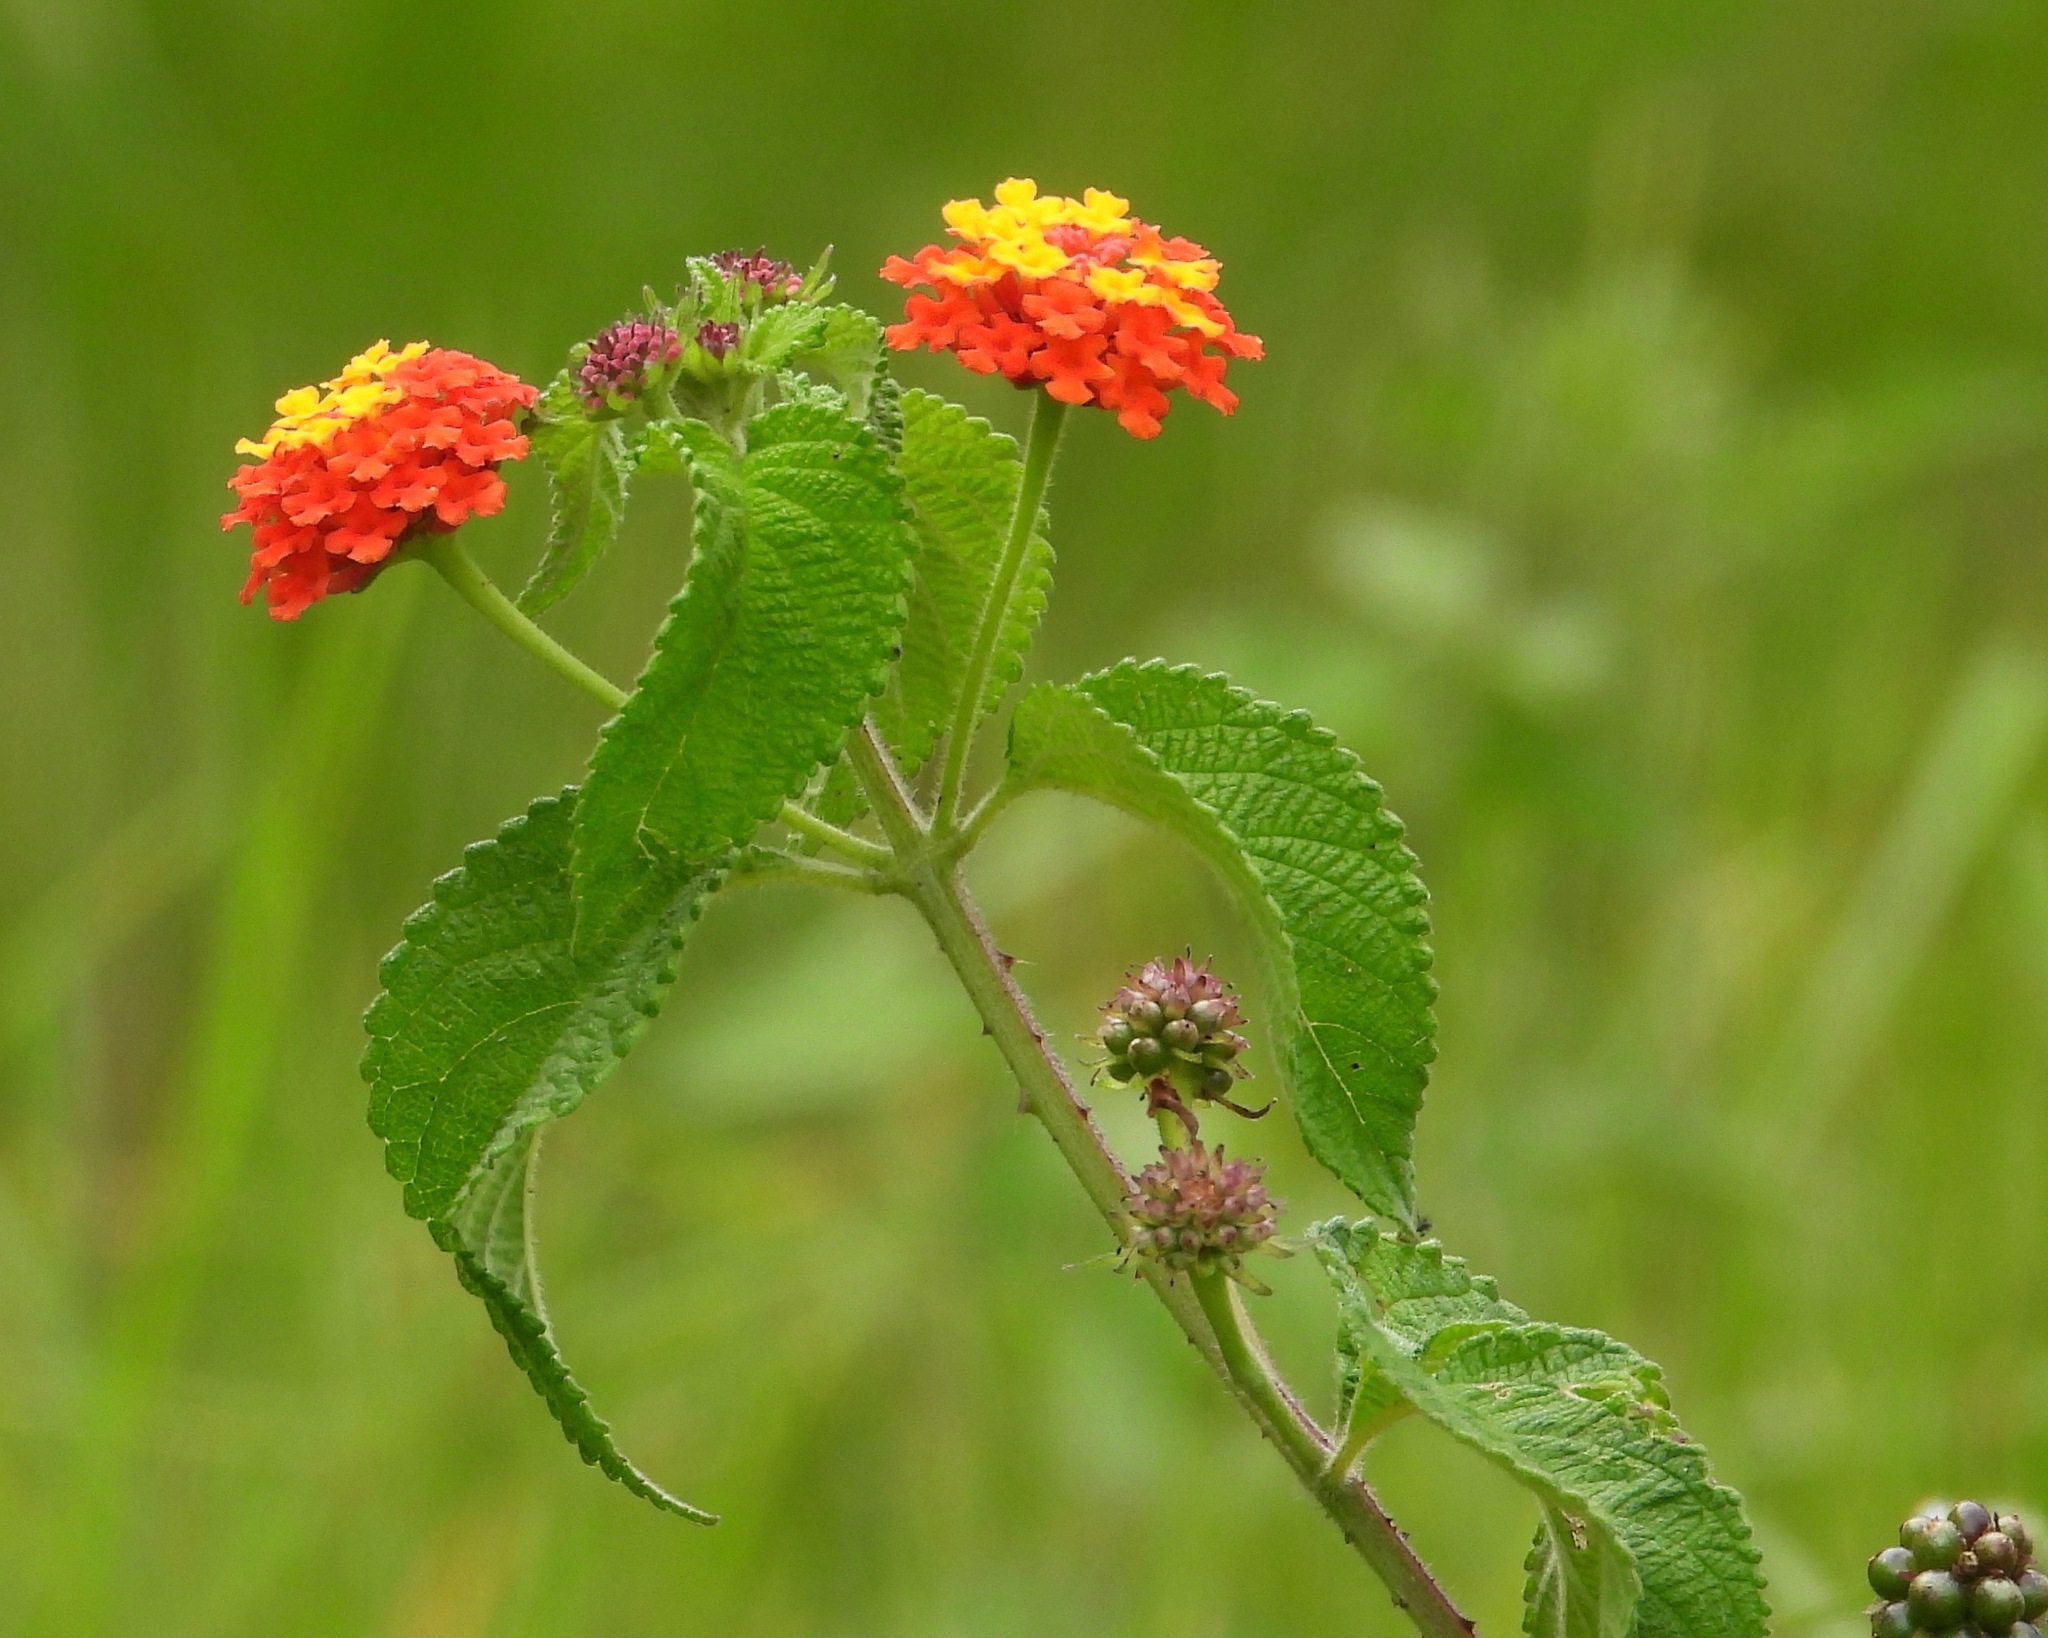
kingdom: Plantae
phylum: Tracheophyta
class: Magnoliopsida
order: Lamiales
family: Verbenaceae
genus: Lantana
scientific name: Lantana camara
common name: Lantana
